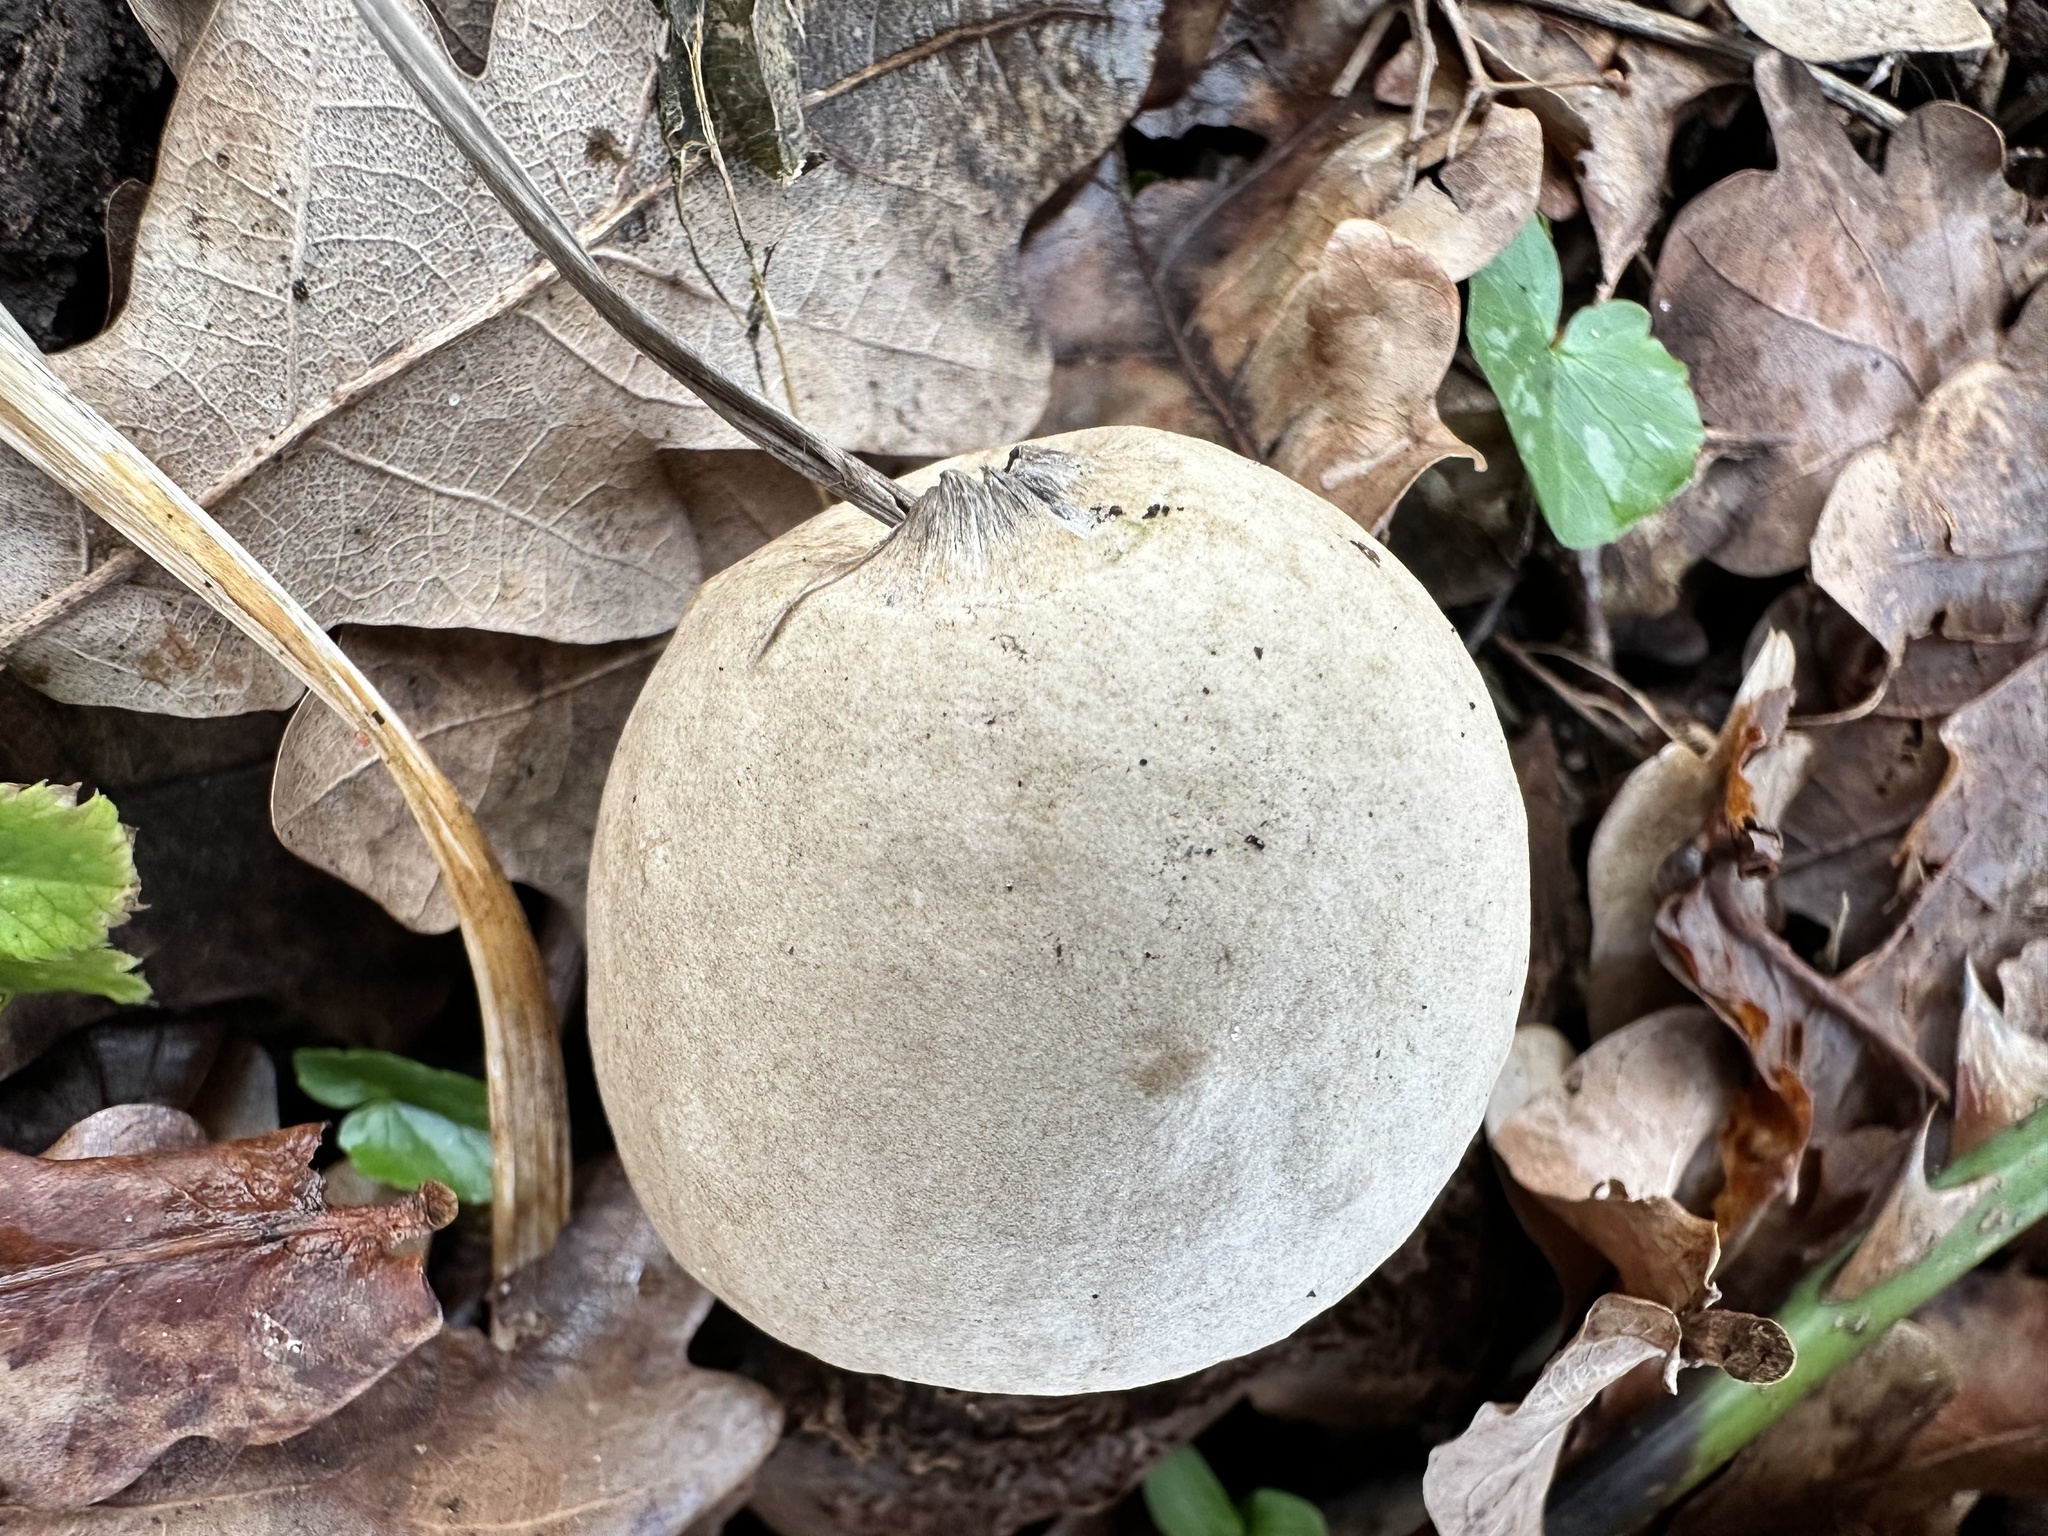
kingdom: Fungi
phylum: Basidiomycota
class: Agaricomycetes
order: Geastrales
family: Geastraceae
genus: Geastrum
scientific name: Geastrum triplex
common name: Collared earthstar
